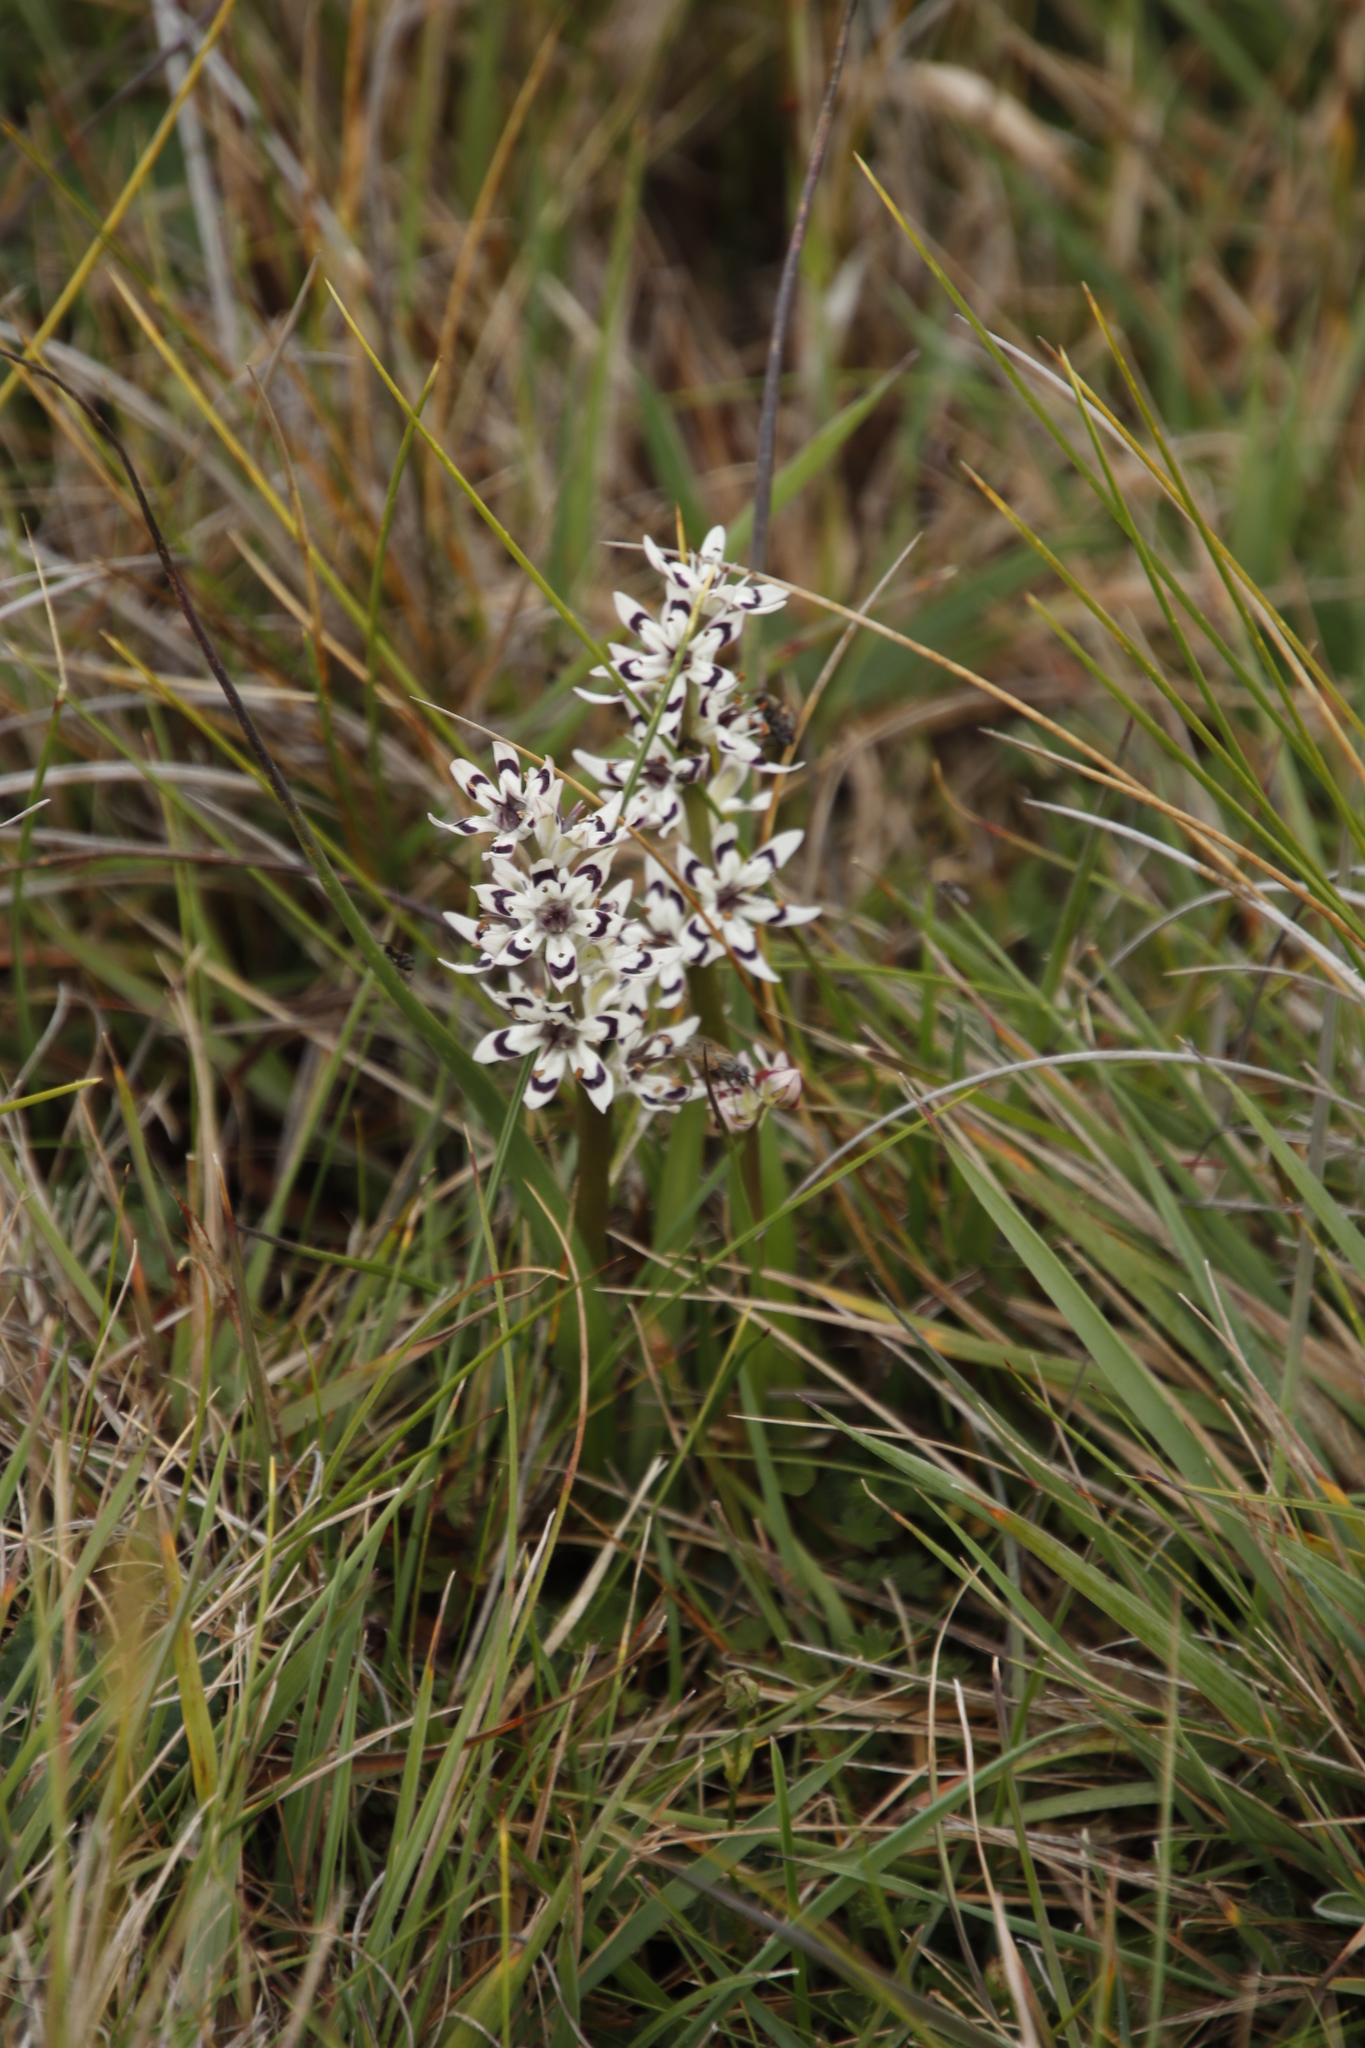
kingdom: Plantae
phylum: Tracheophyta
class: Liliopsida
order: Liliales
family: Colchicaceae
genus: Wurmbea
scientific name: Wurmbea elatior
